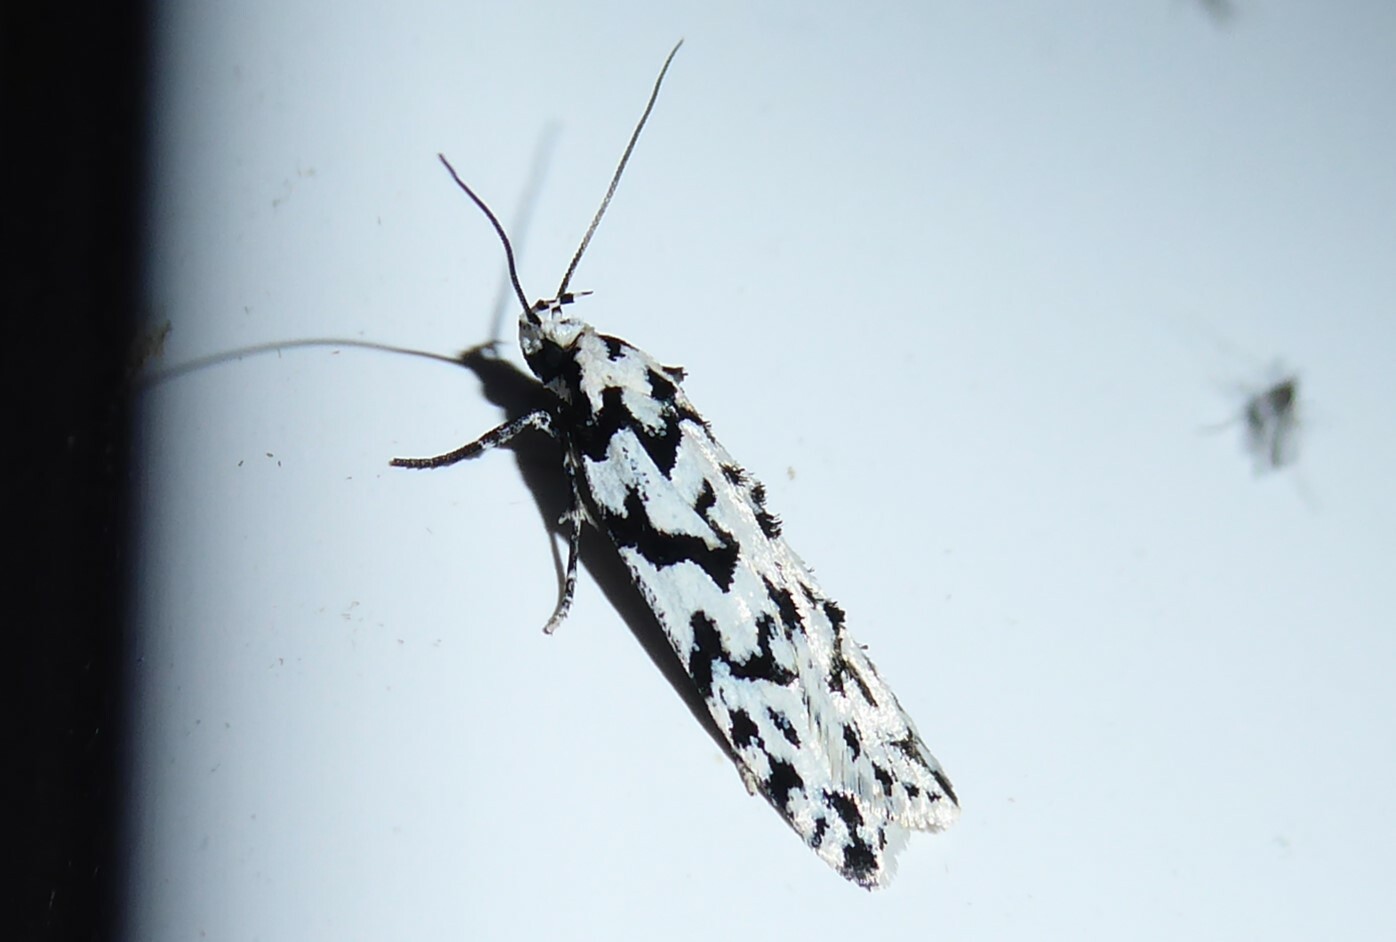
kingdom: Animalia
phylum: Arthropoda
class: Insecta
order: Lepidoptera
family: Oecophoridae
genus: Izatha
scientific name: Izatha katadiktya
